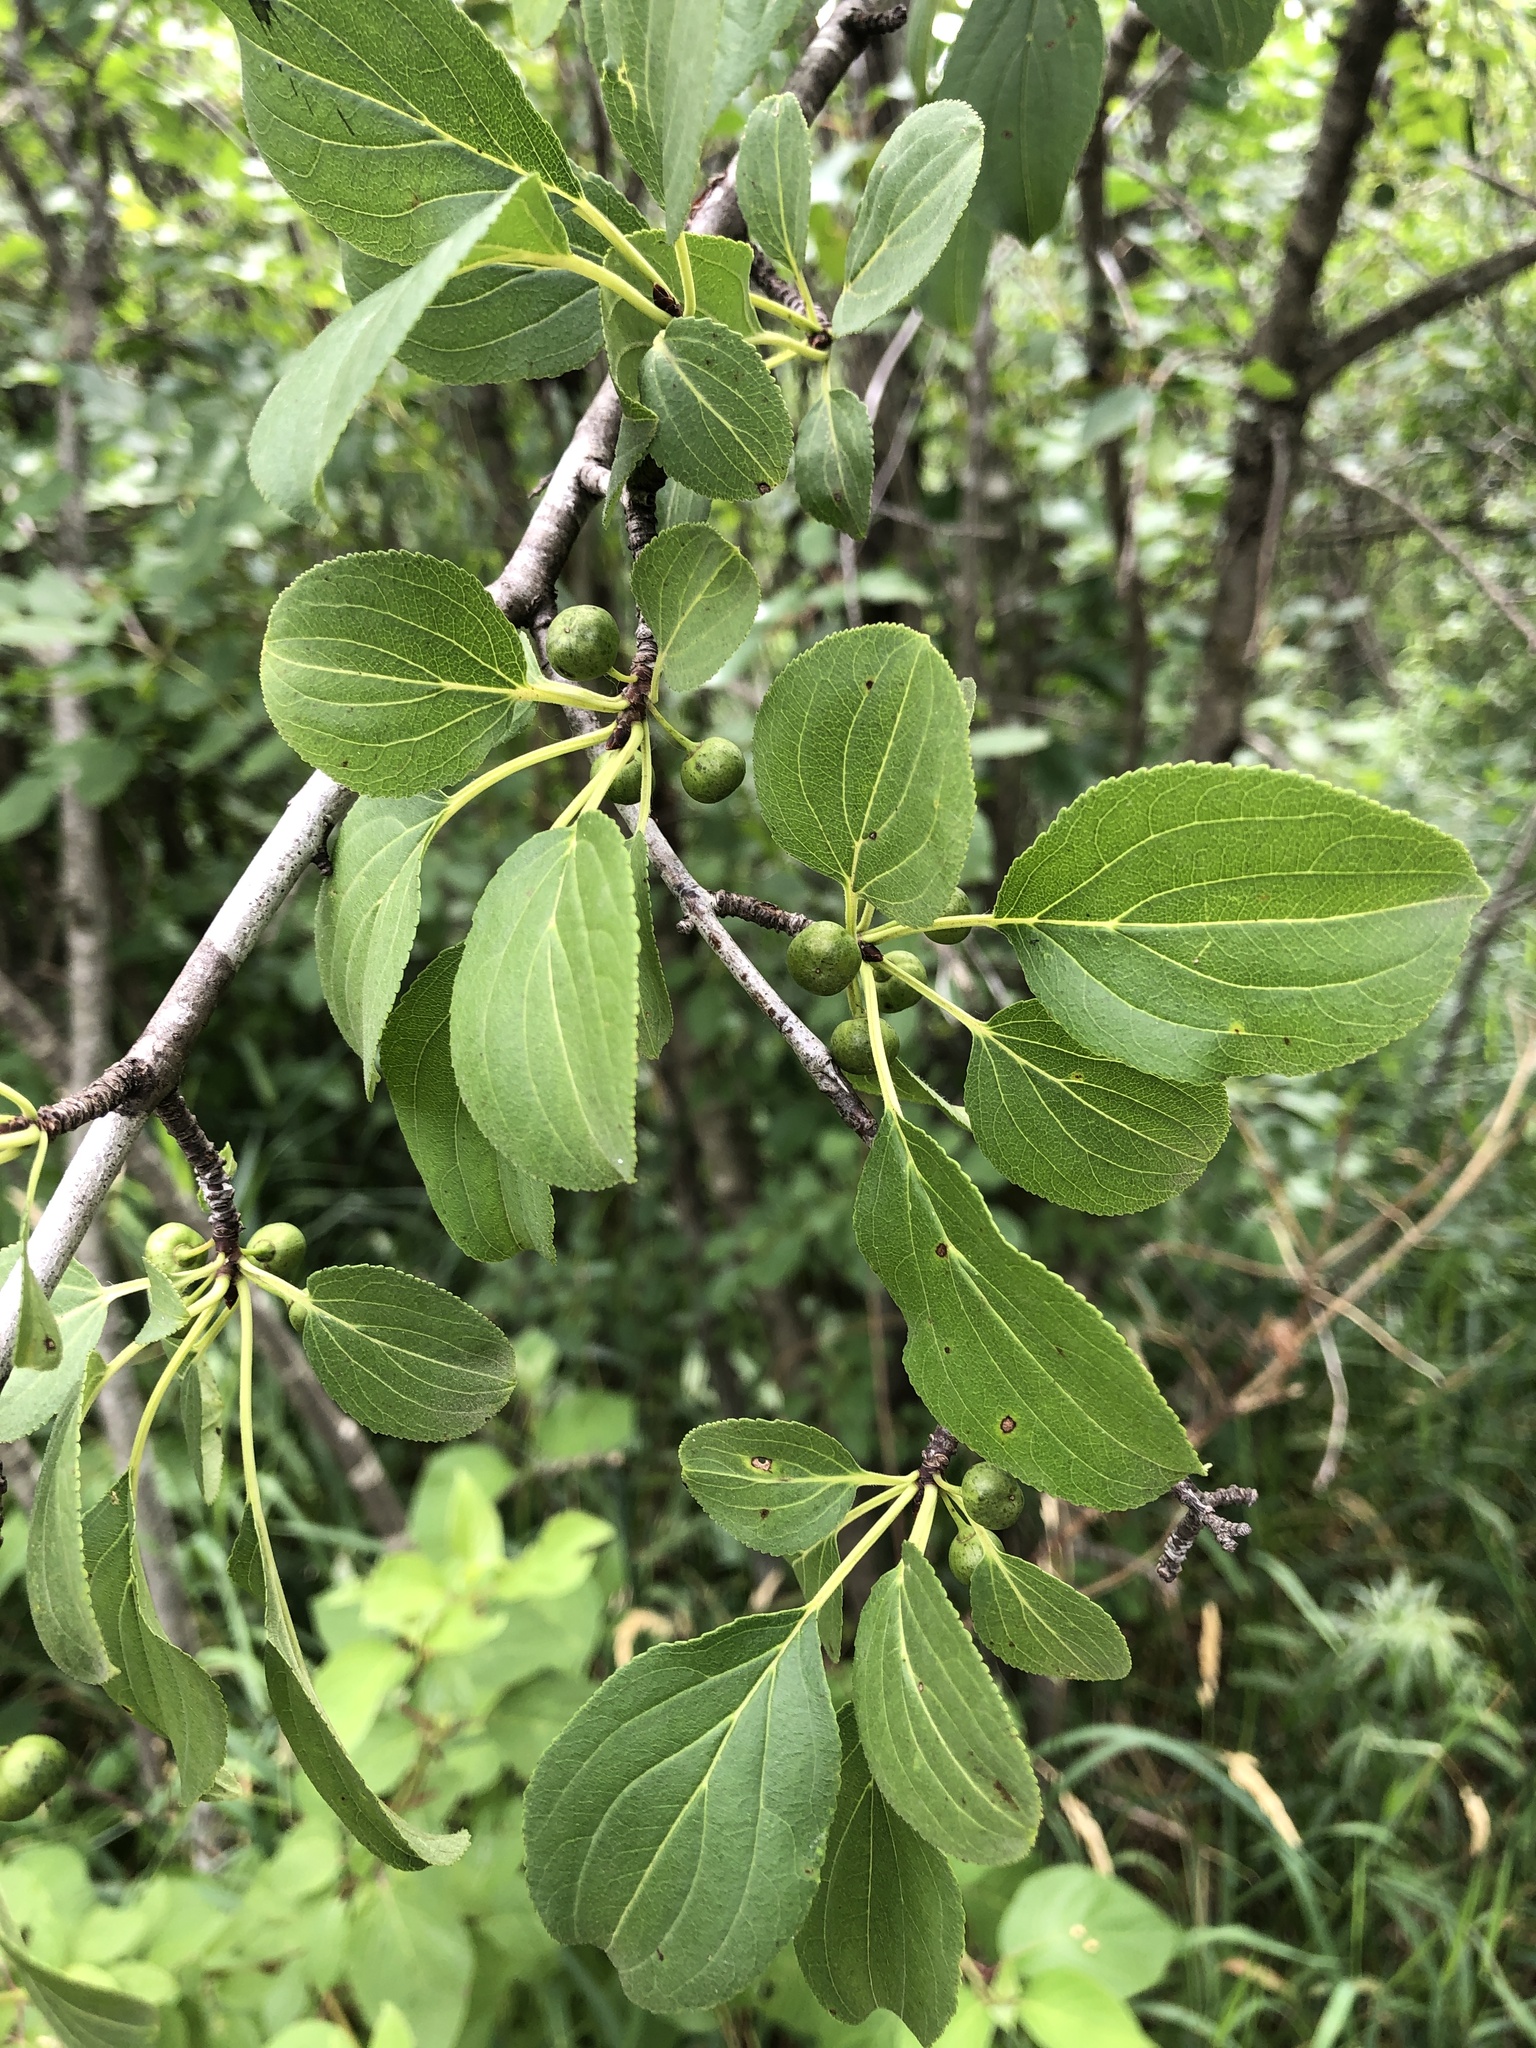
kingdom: Plantae
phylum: Tracheophyta
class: Magnoliopsida
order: Rosales
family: Rhamnaceae
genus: Rhamnus
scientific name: Rhamnus cathartica
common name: Common buckthorn
